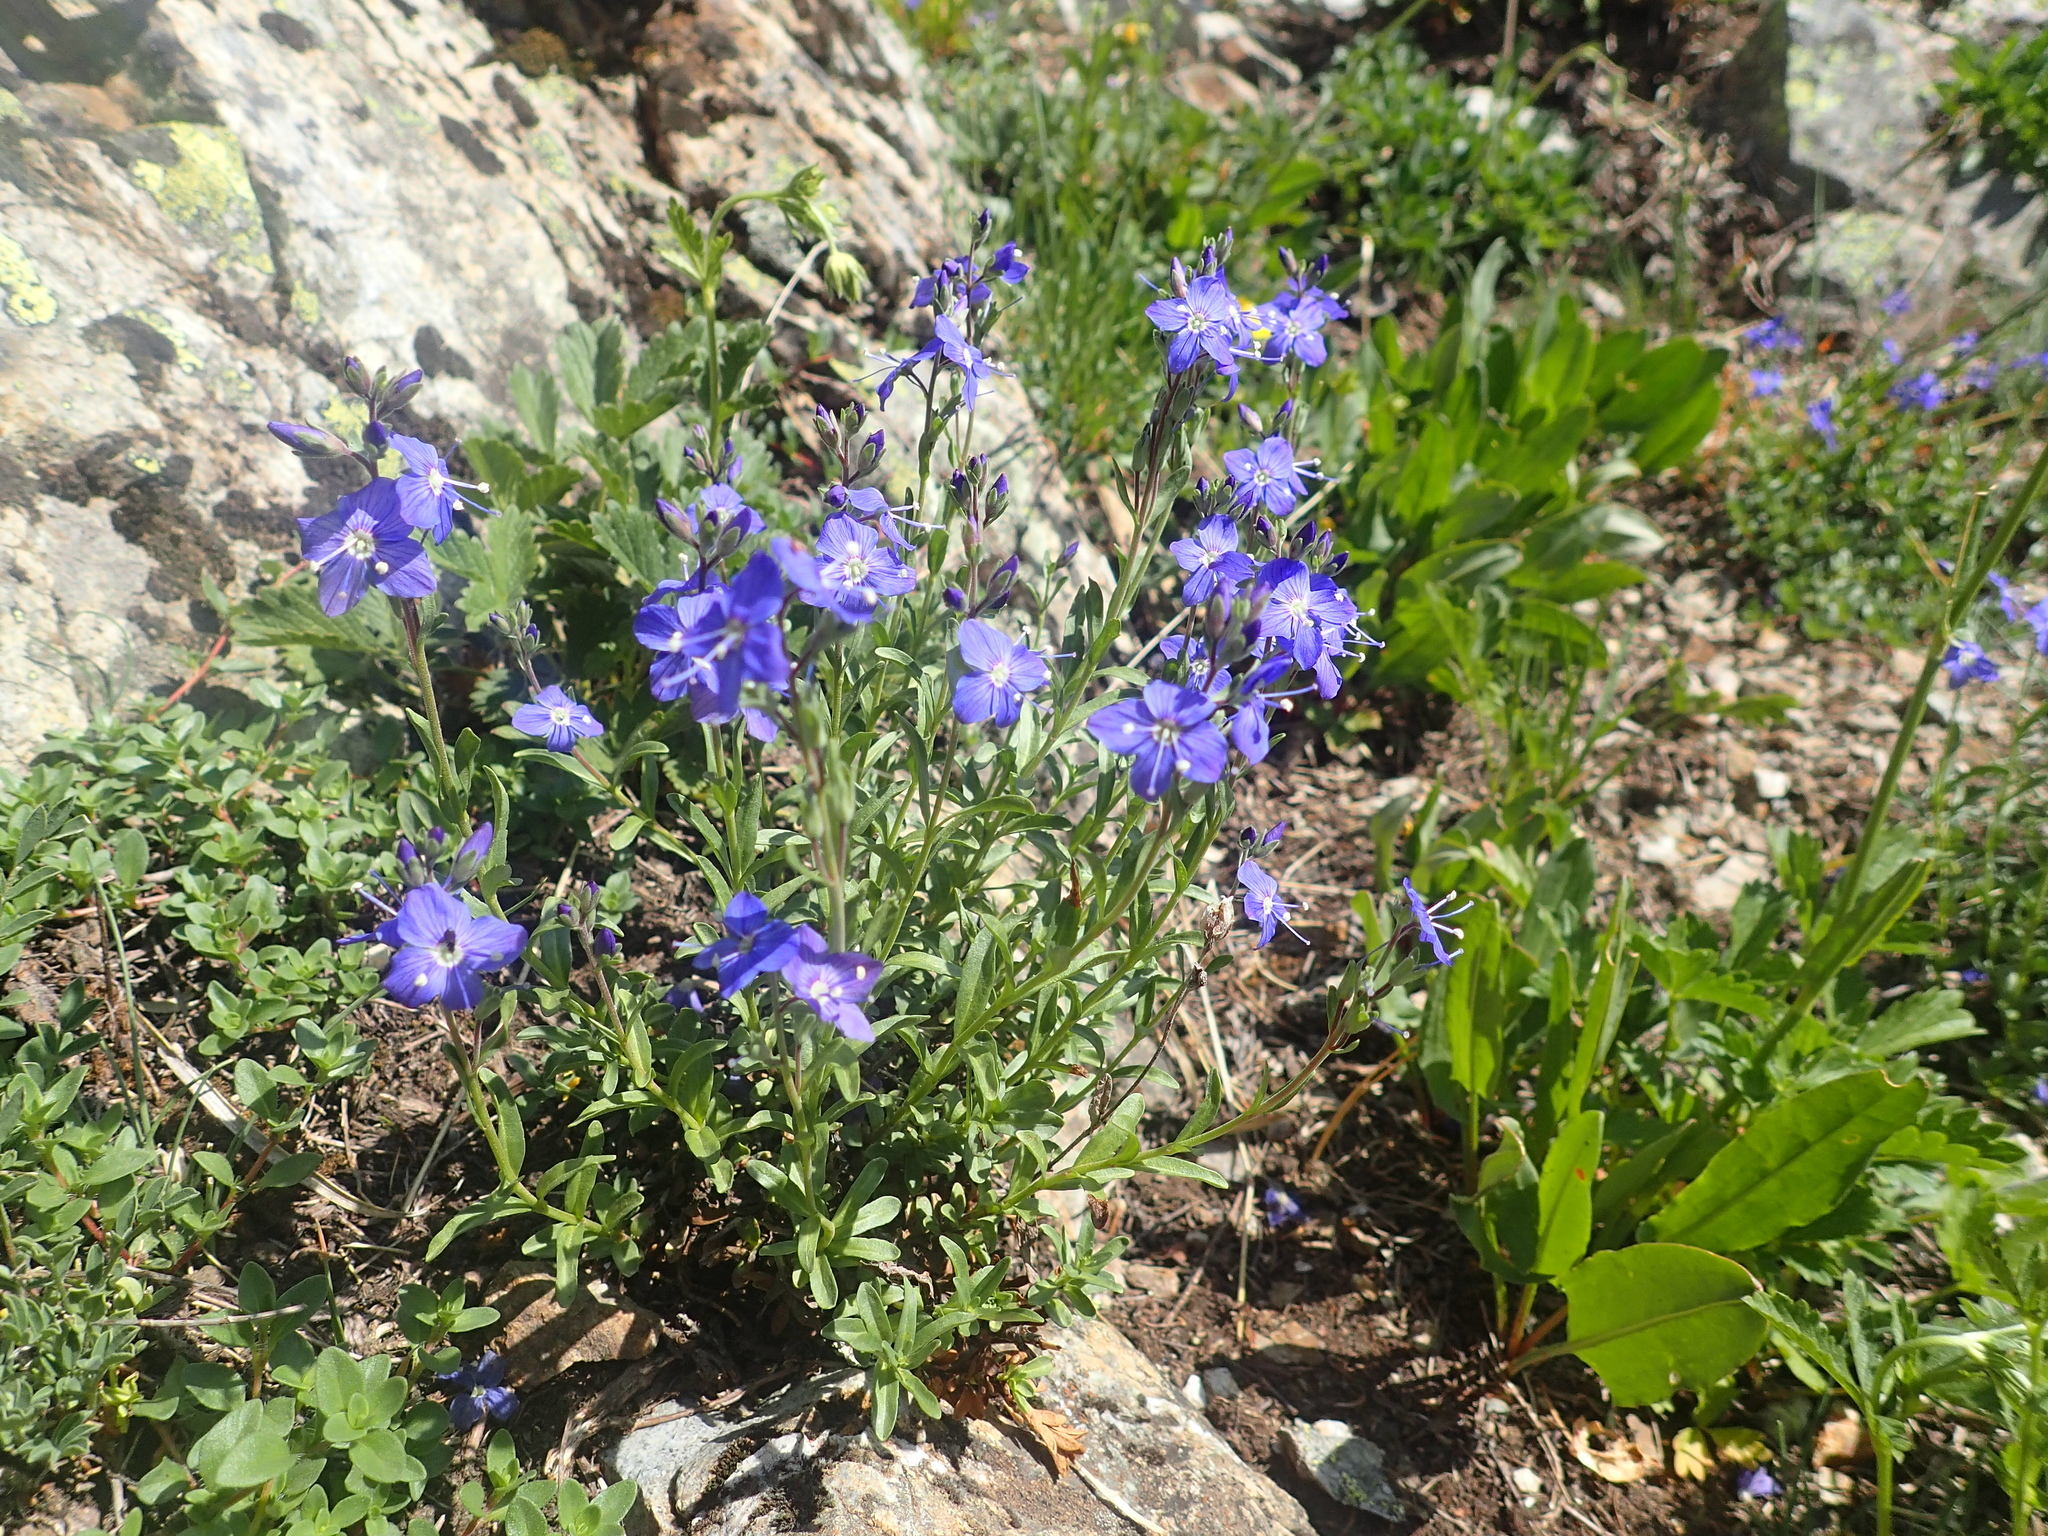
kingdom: Plantae
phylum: Tracheophyta
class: Magnoliopsida
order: Lamiales
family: Plantaginaceae
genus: Veronica
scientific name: Veronica fruticans
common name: Rock speedwell
